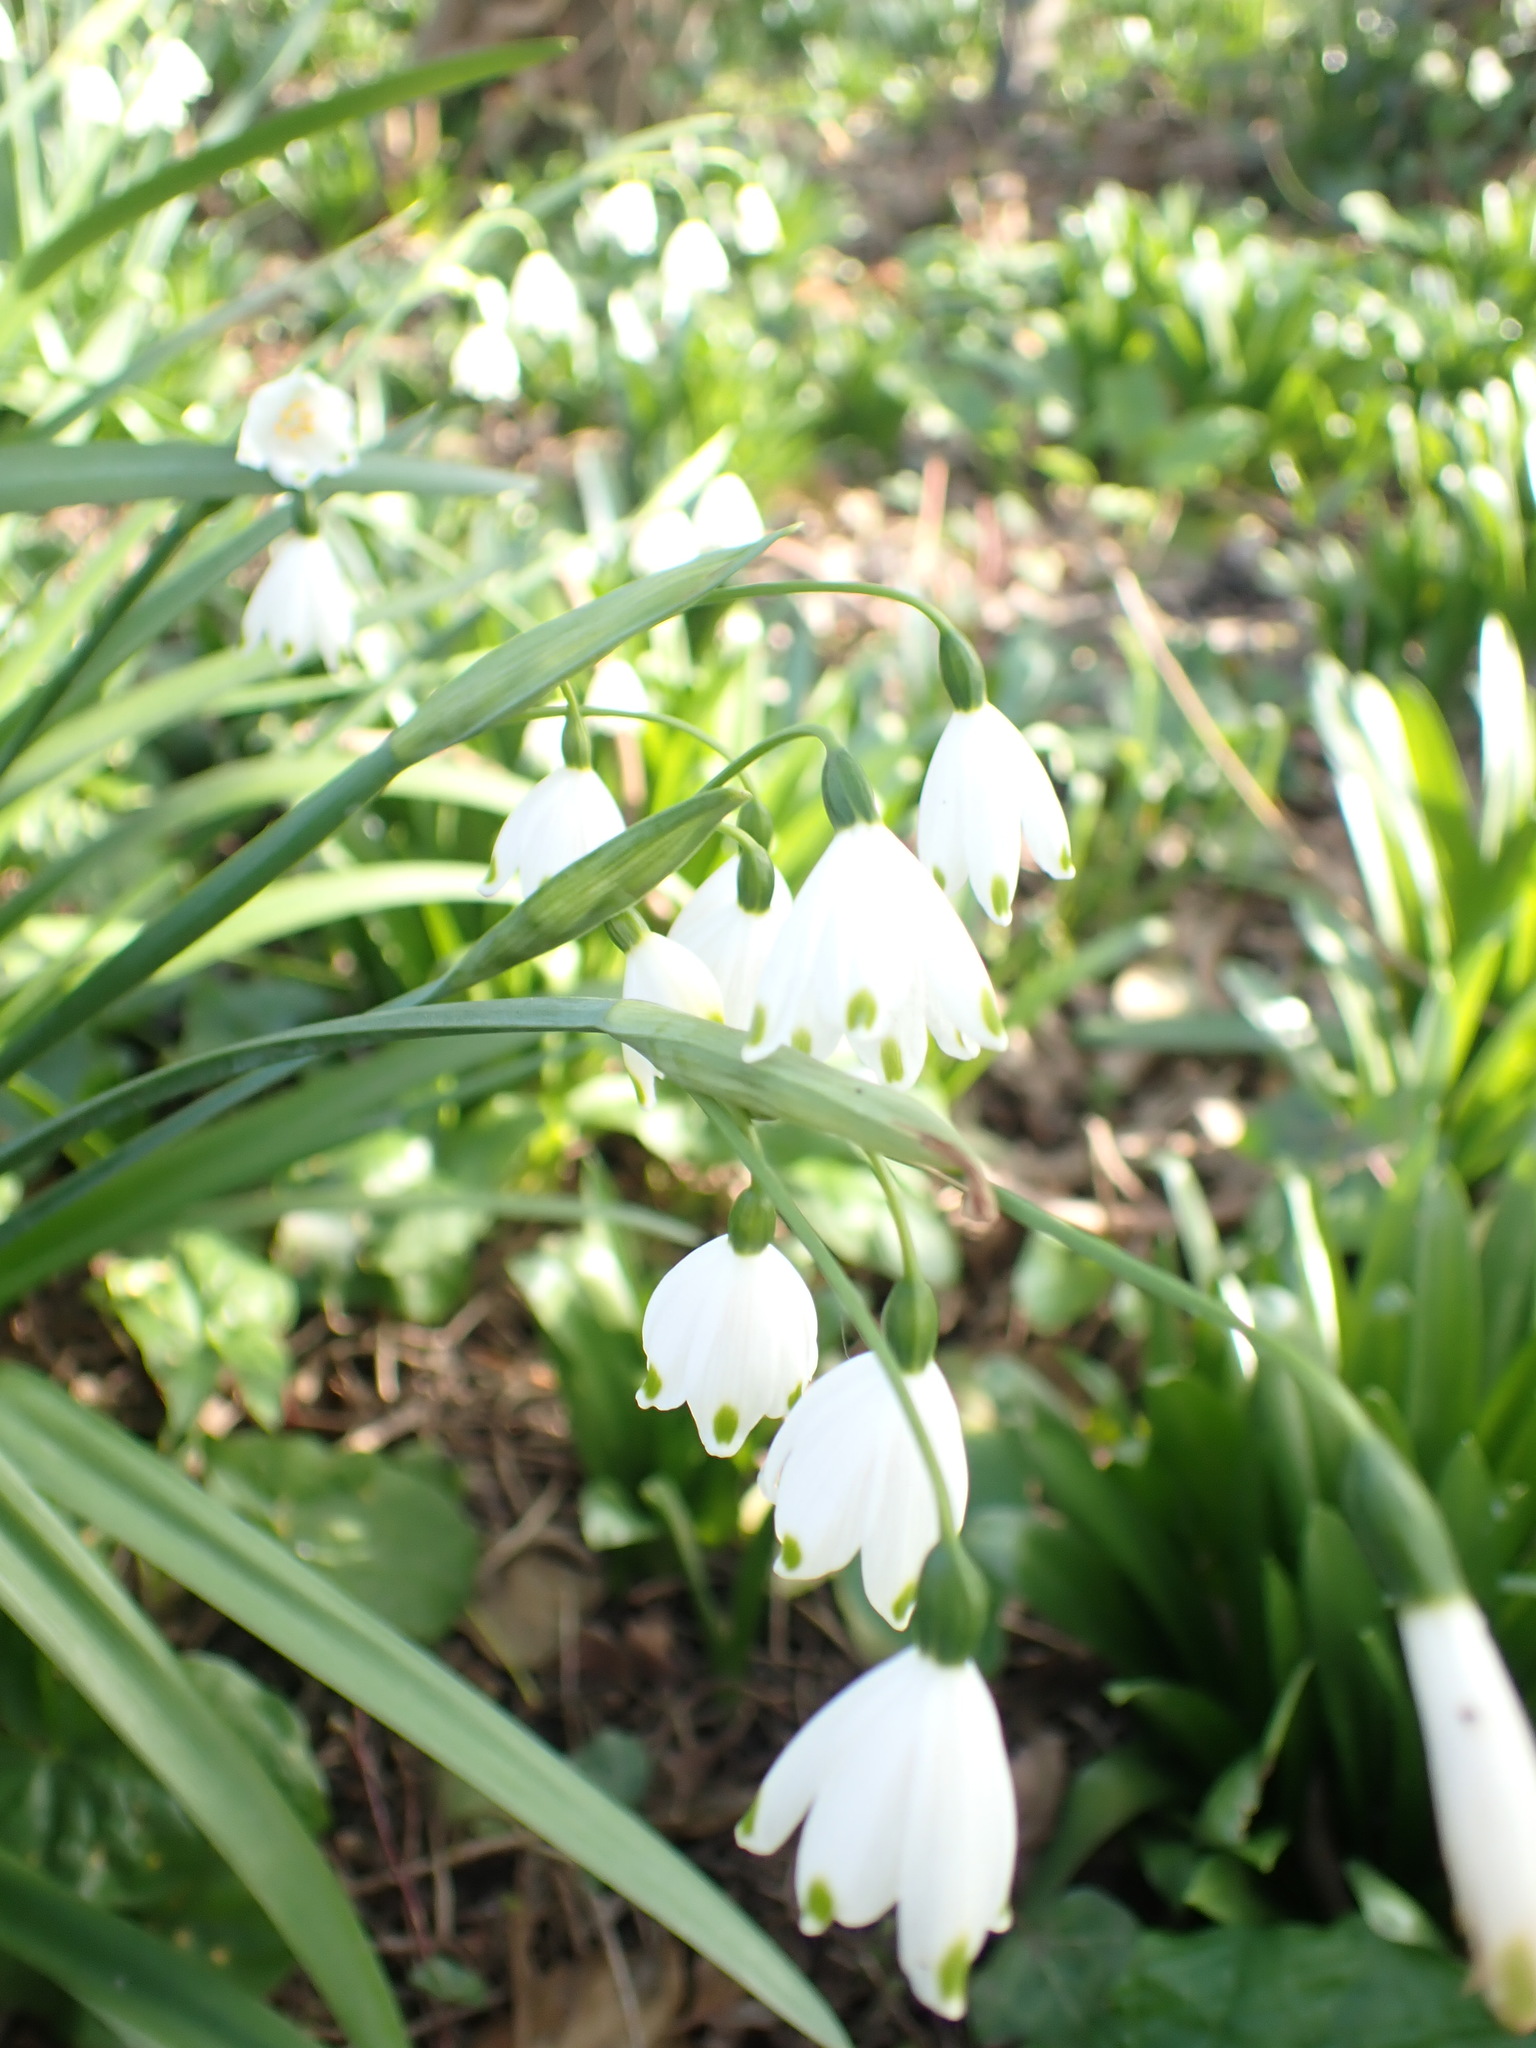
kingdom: Plantae
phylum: Tracheophyta
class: Liliopsida
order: Asparagales
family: Amaryllidaceae
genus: Leucojum
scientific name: Leucojum aestivum
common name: Summer snowflake
